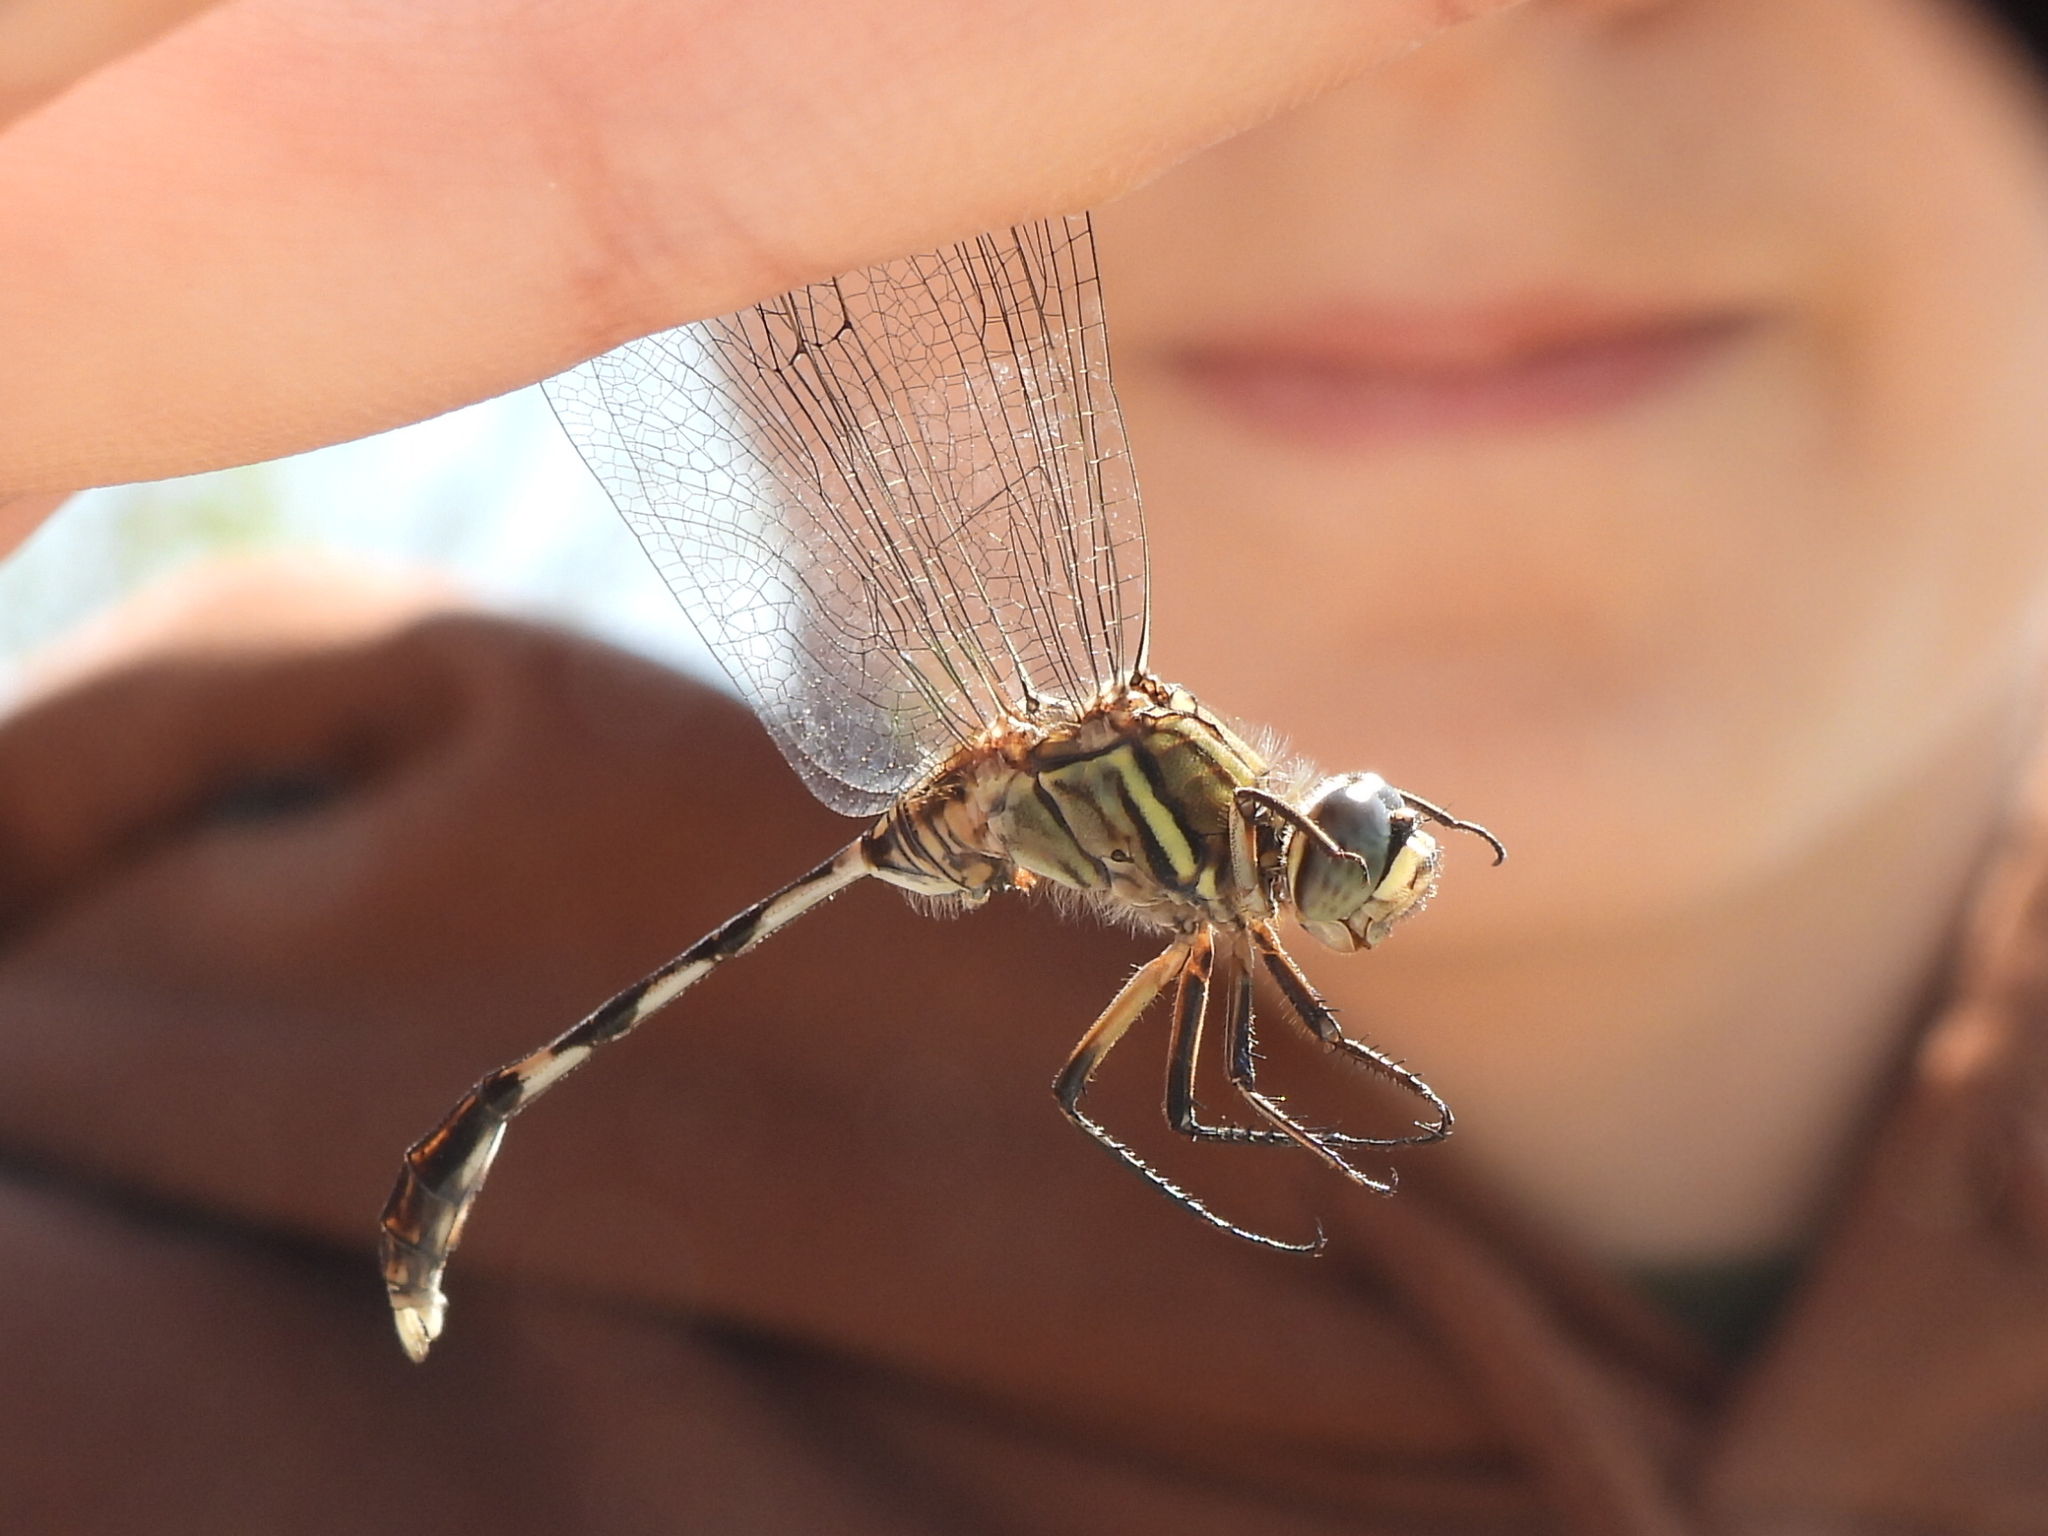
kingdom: Animalia
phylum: Arthropoda
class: Insecta
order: Odonata
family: Libellulidae
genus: Orthetrum
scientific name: Orthetrum sabina
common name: Slender skimmer
